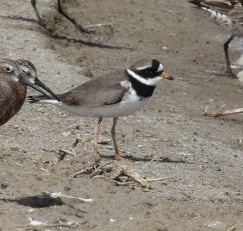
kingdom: Animalia
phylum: Chordata
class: Aves
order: Charadriiformes
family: Charadriidae
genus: Charadrius
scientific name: Charadrius hiaticula
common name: Common ringed plover
